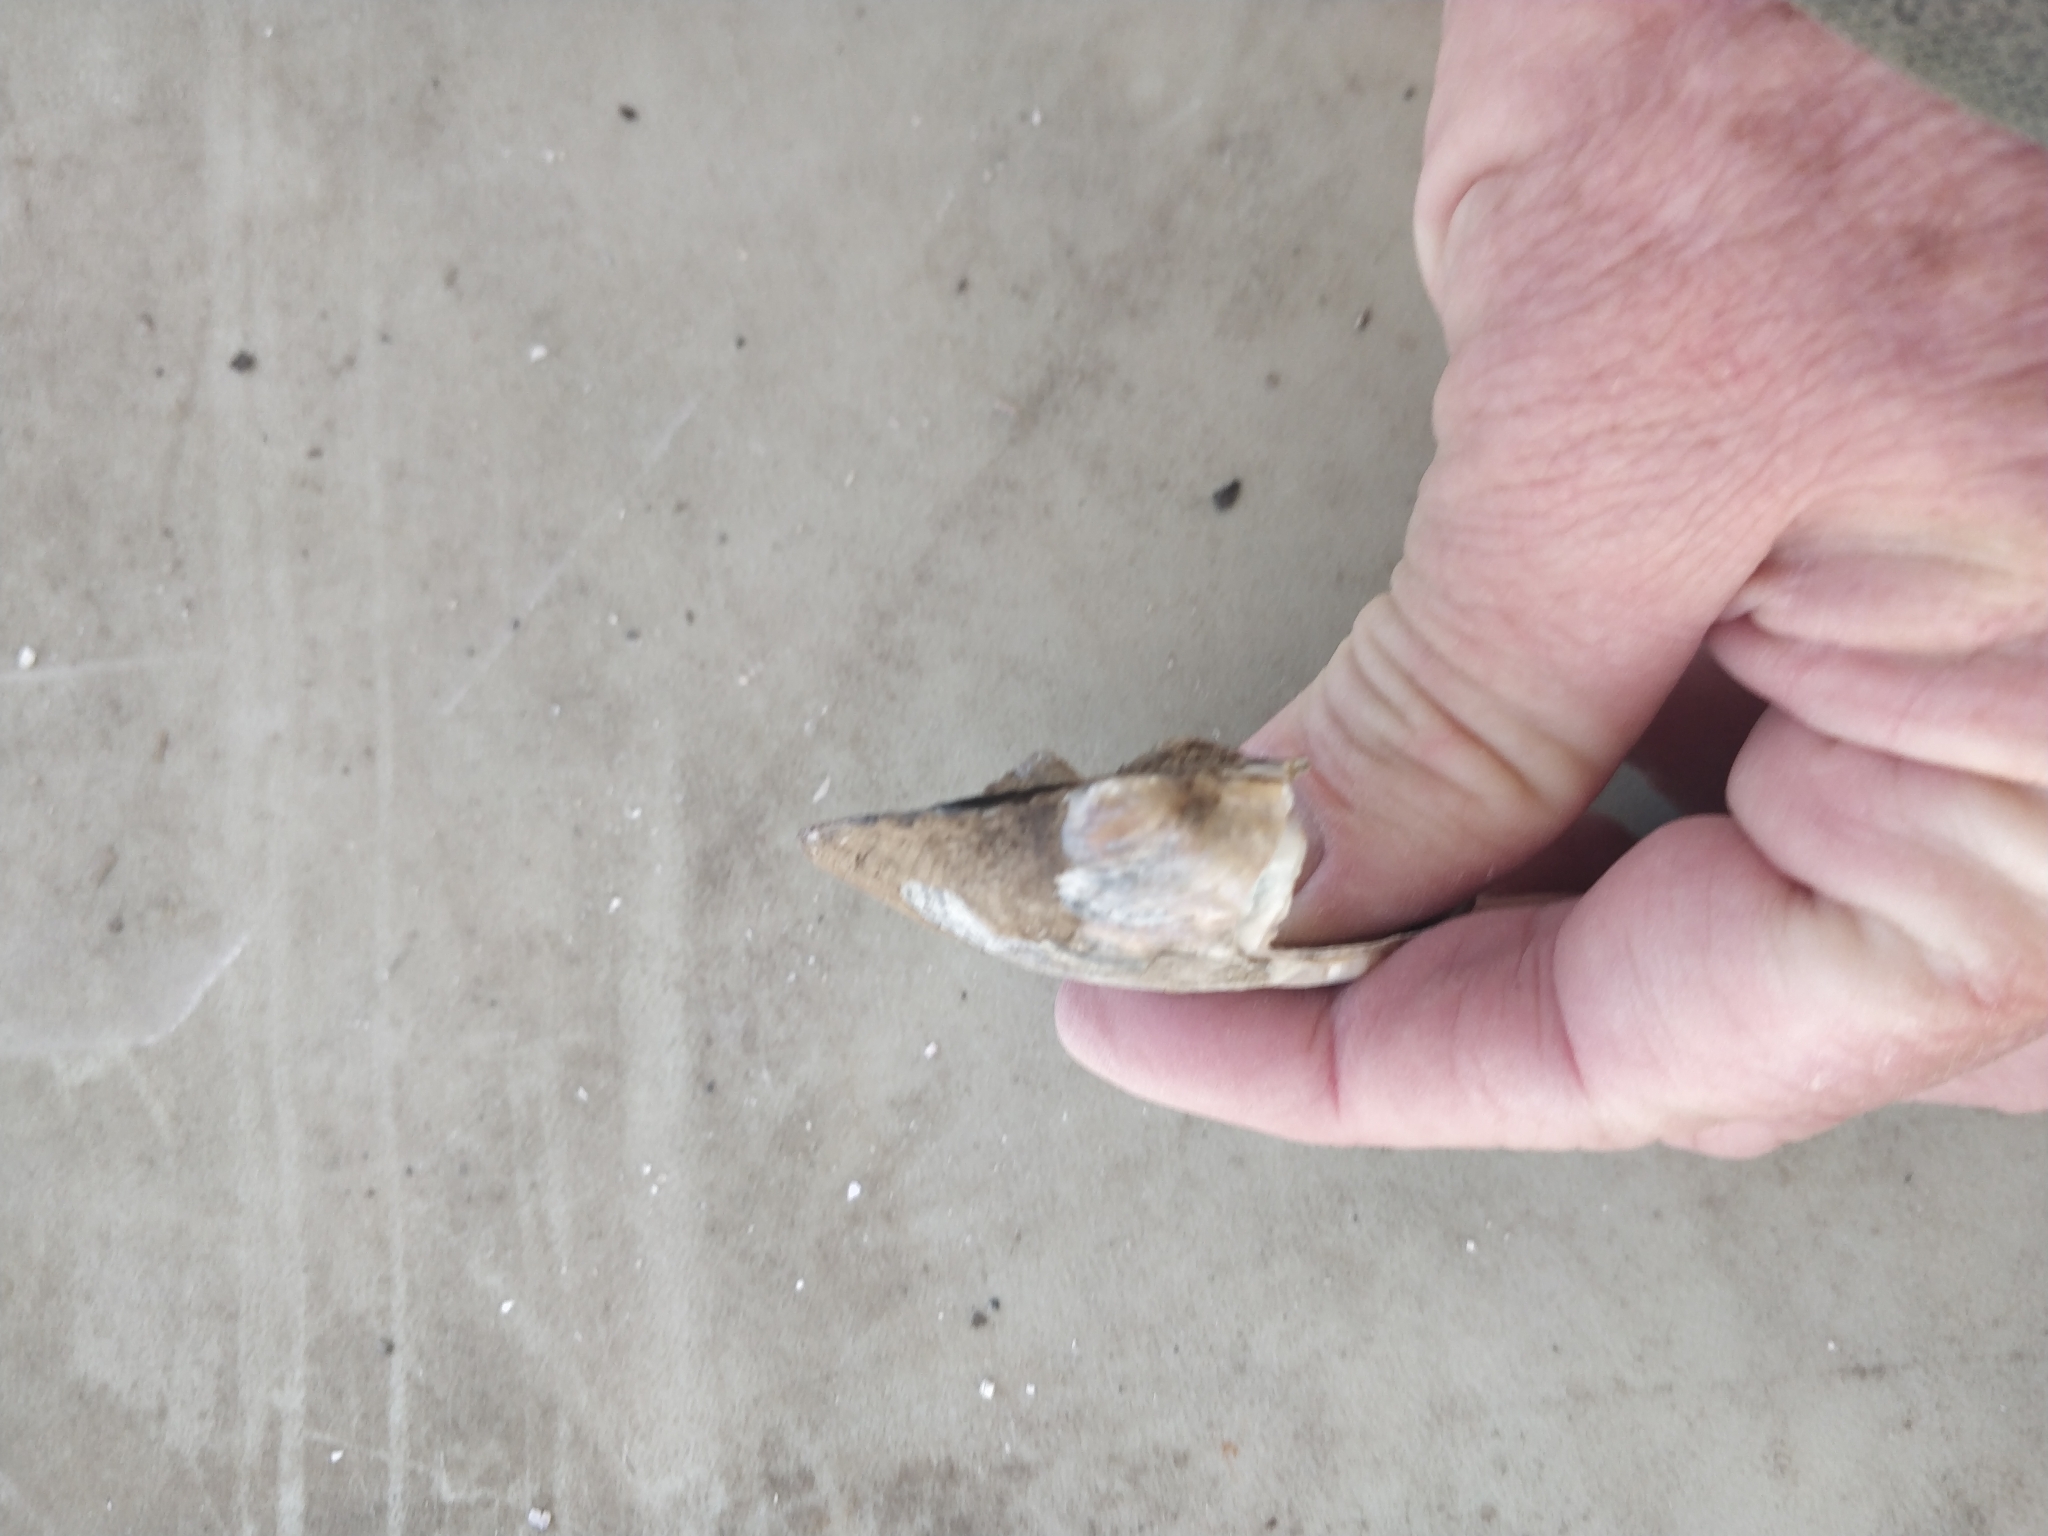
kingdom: Animalia
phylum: Mollusca
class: Bivalvia
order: Unionida
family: Unionidae
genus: Amblema
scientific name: Amblema plicata
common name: Threeridge
